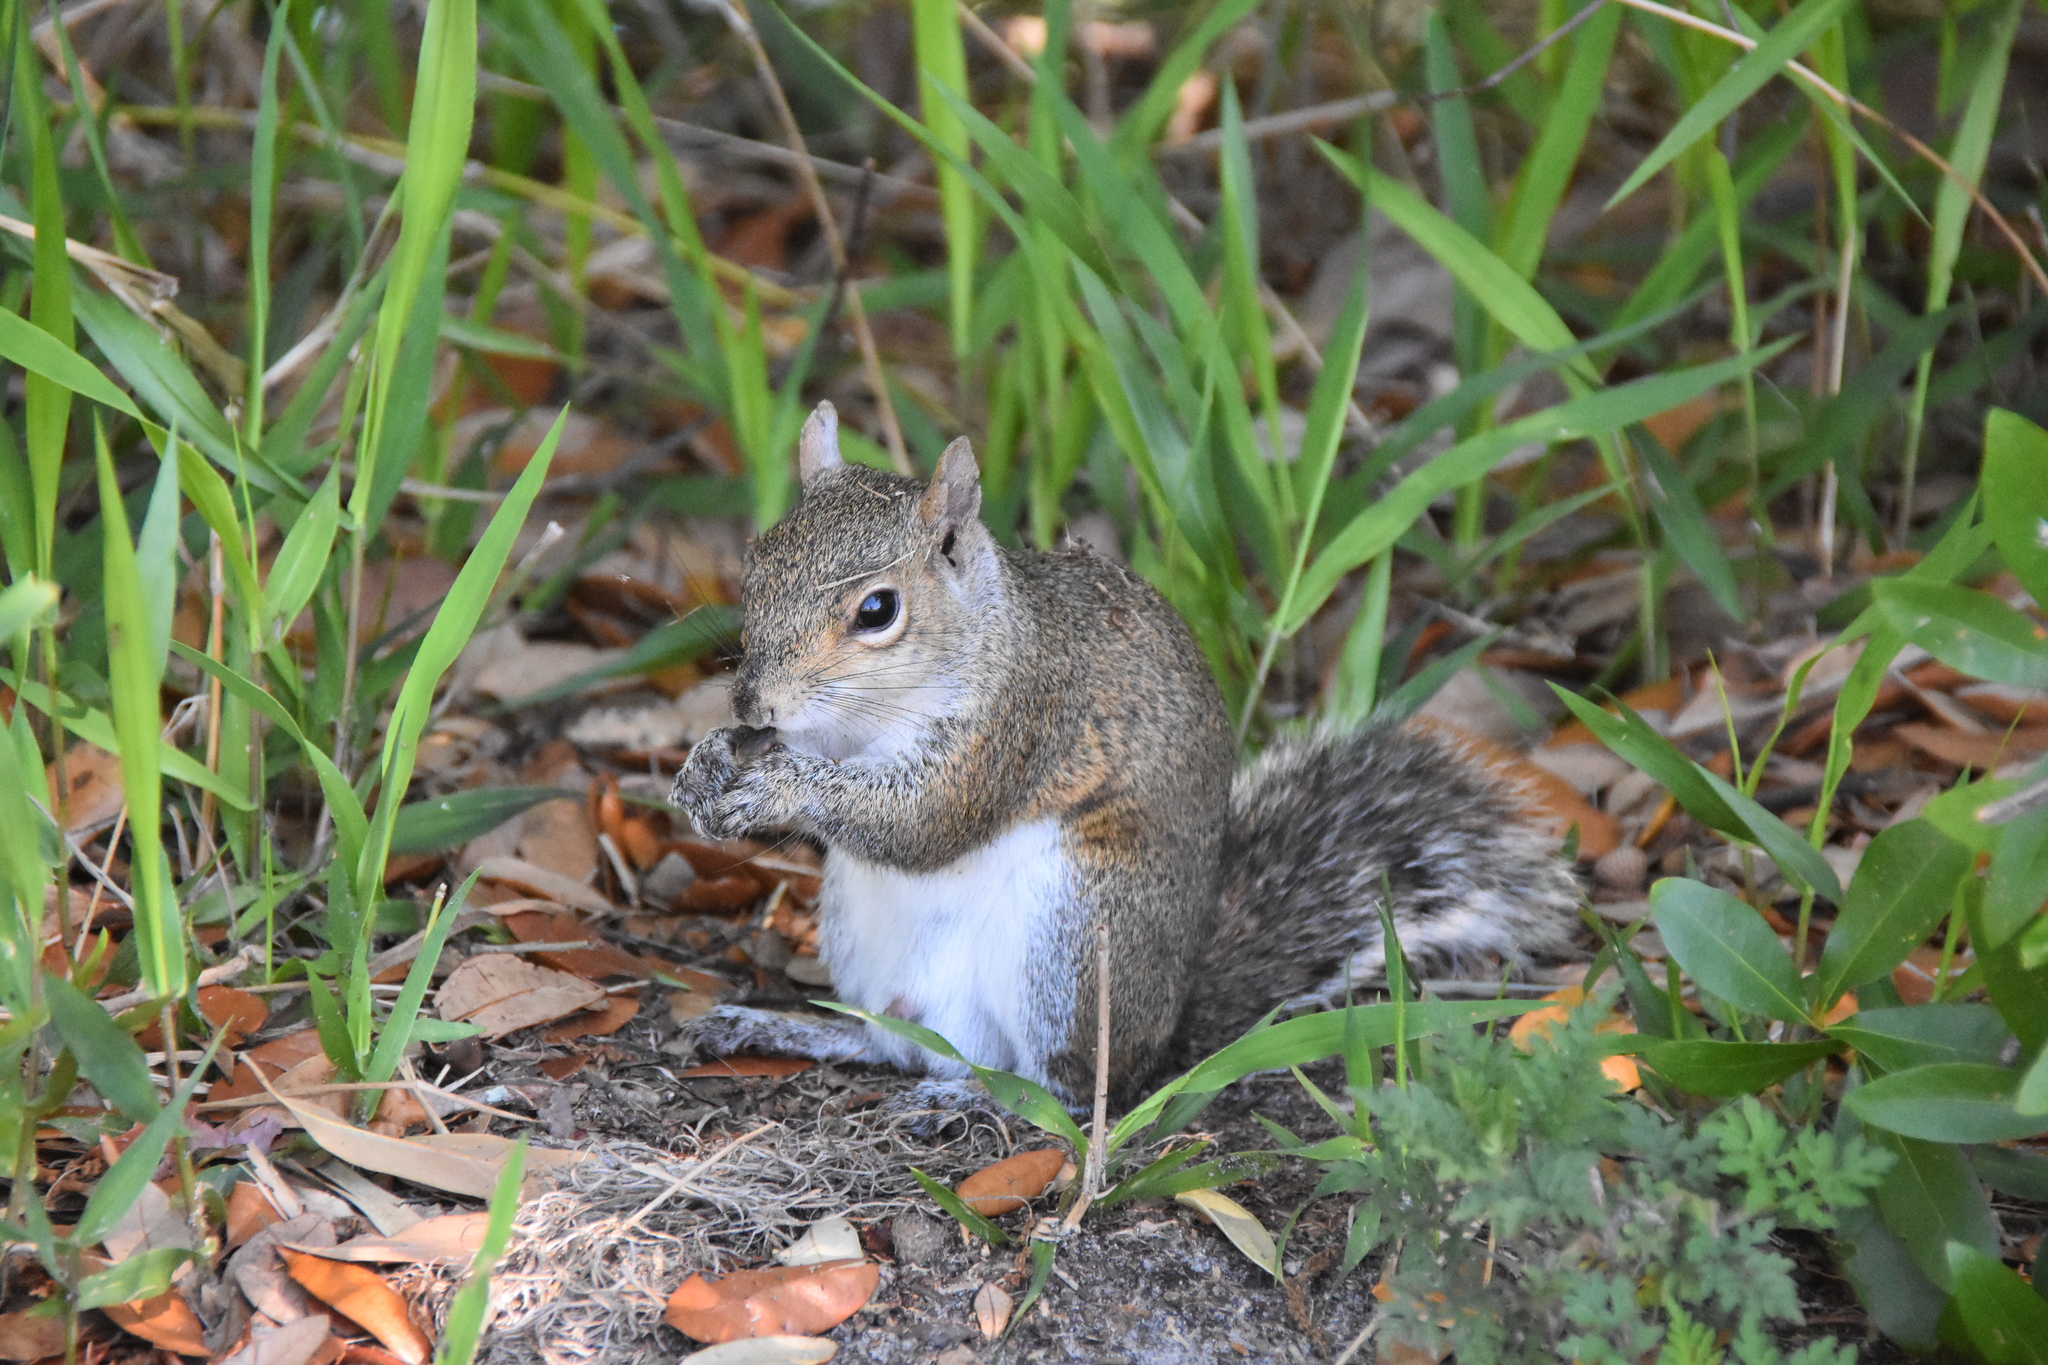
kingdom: Animalia
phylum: Chordata
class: Mammalia
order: Rodentia
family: Sciuridae
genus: Sciurus
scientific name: Sciurus carolinensis
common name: Eastern gray squirrel
